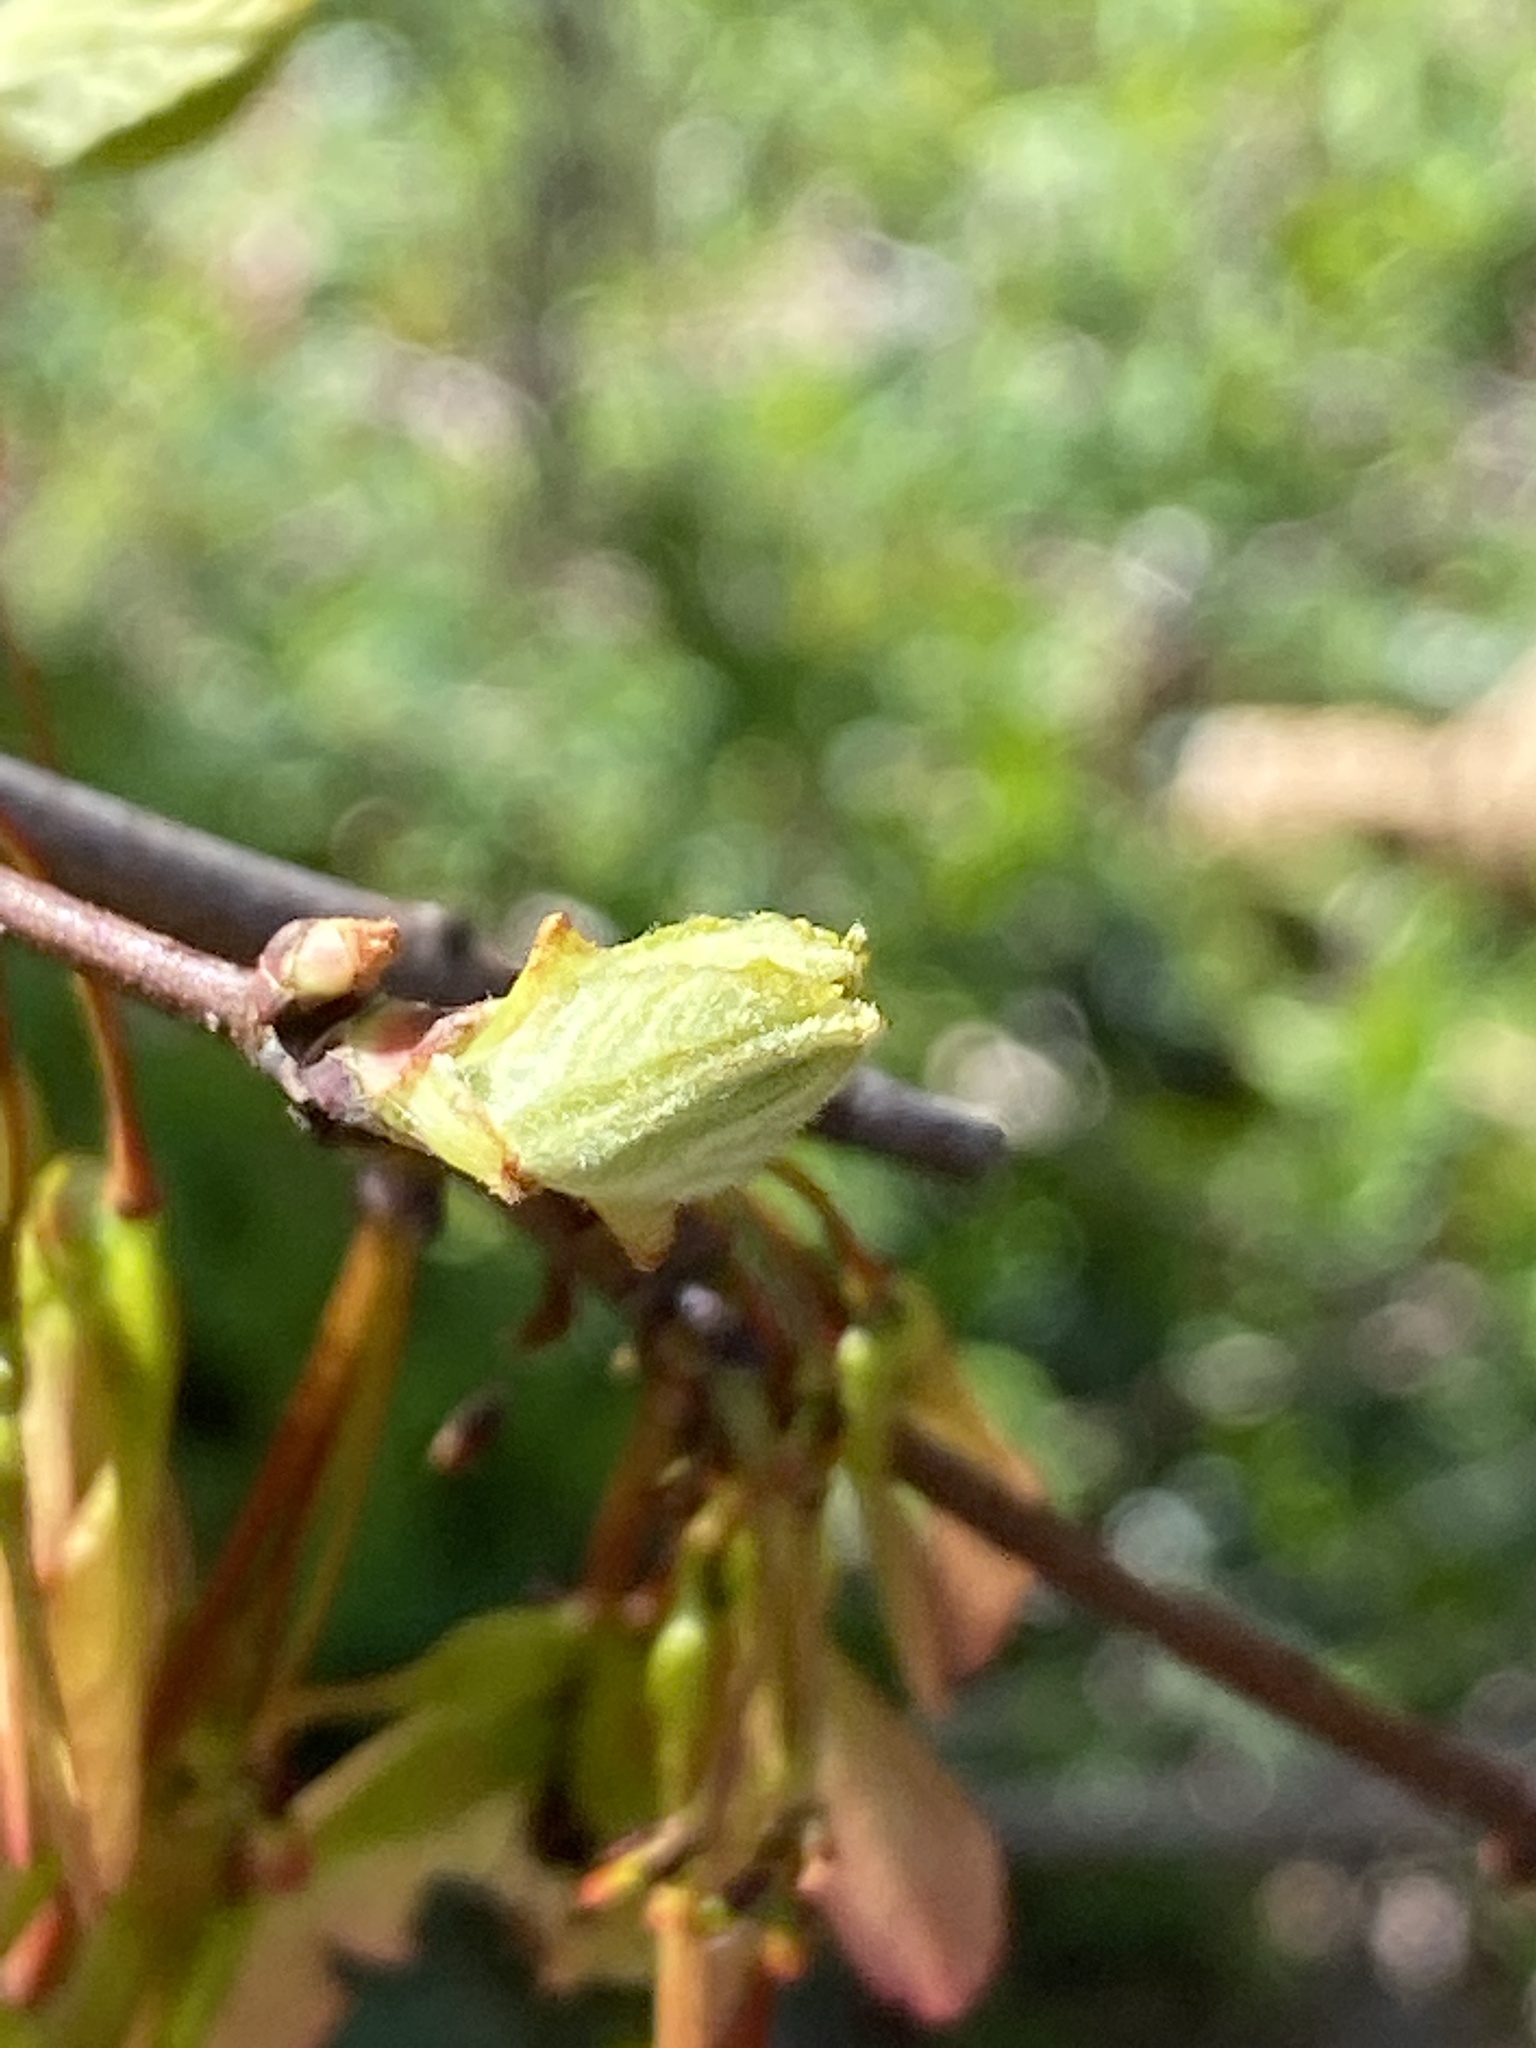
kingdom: Plantae
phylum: Tracheophyta
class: Magnoliopsida
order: Sapindales
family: Sapindaceae
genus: Acer
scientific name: Acer rubrum
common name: Red maple
